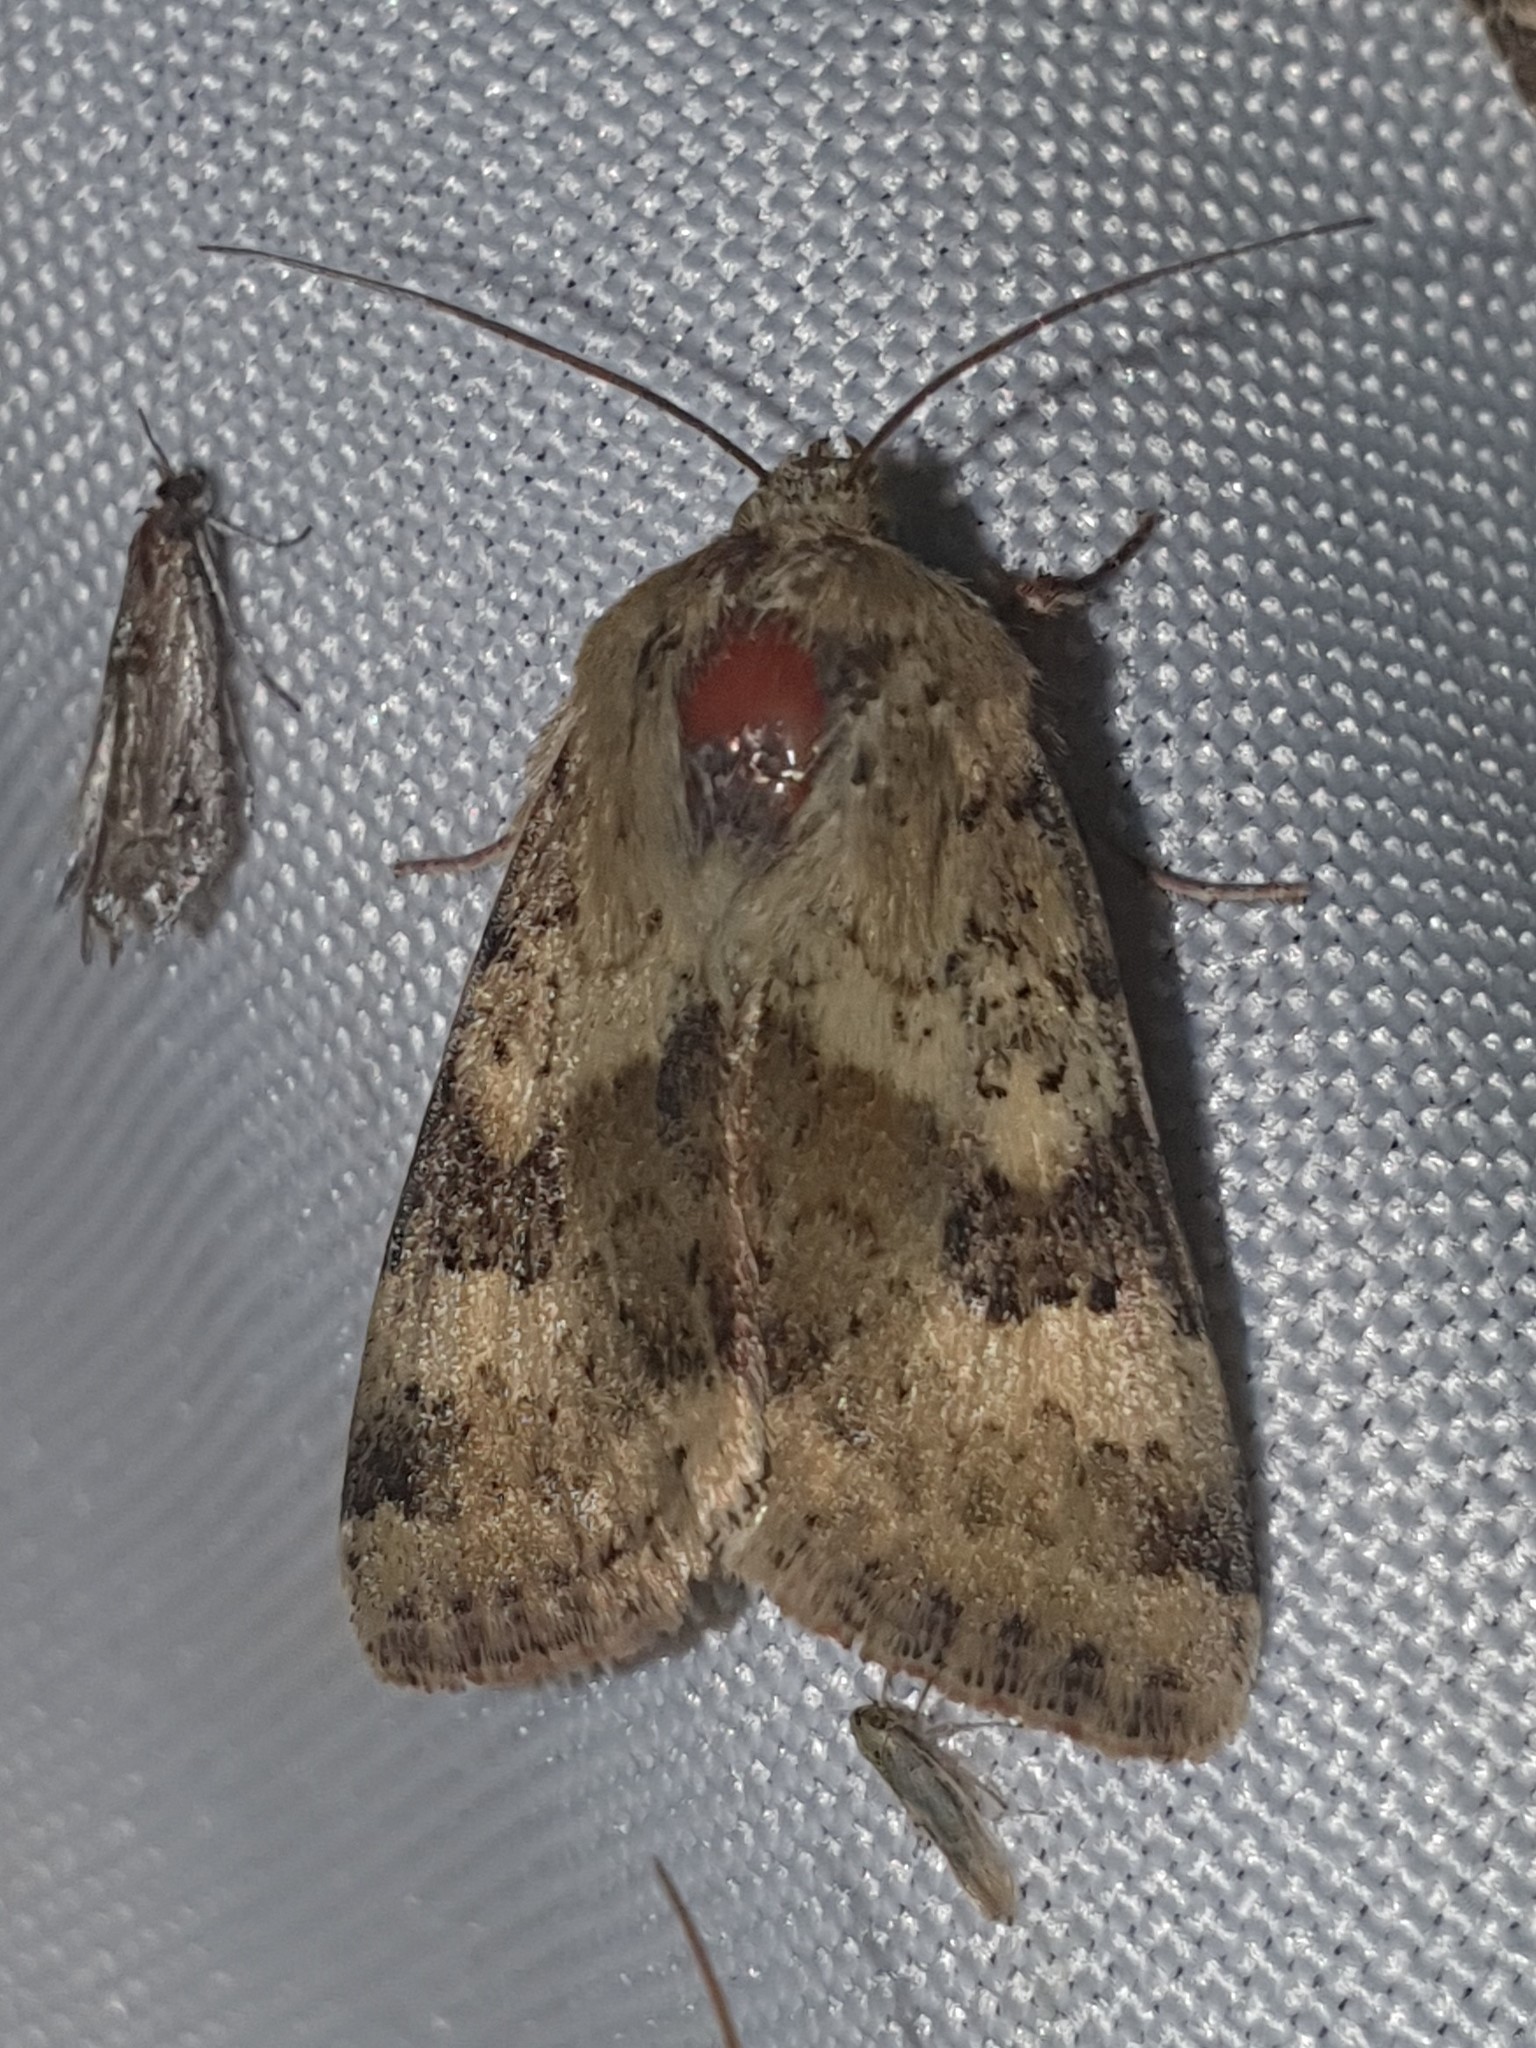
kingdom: Animalia
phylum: Arthropoda
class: Insecta
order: Lepidoptera
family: Noctuidae
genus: Heliothis
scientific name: Heliothis viriplaca
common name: Marbled clover
